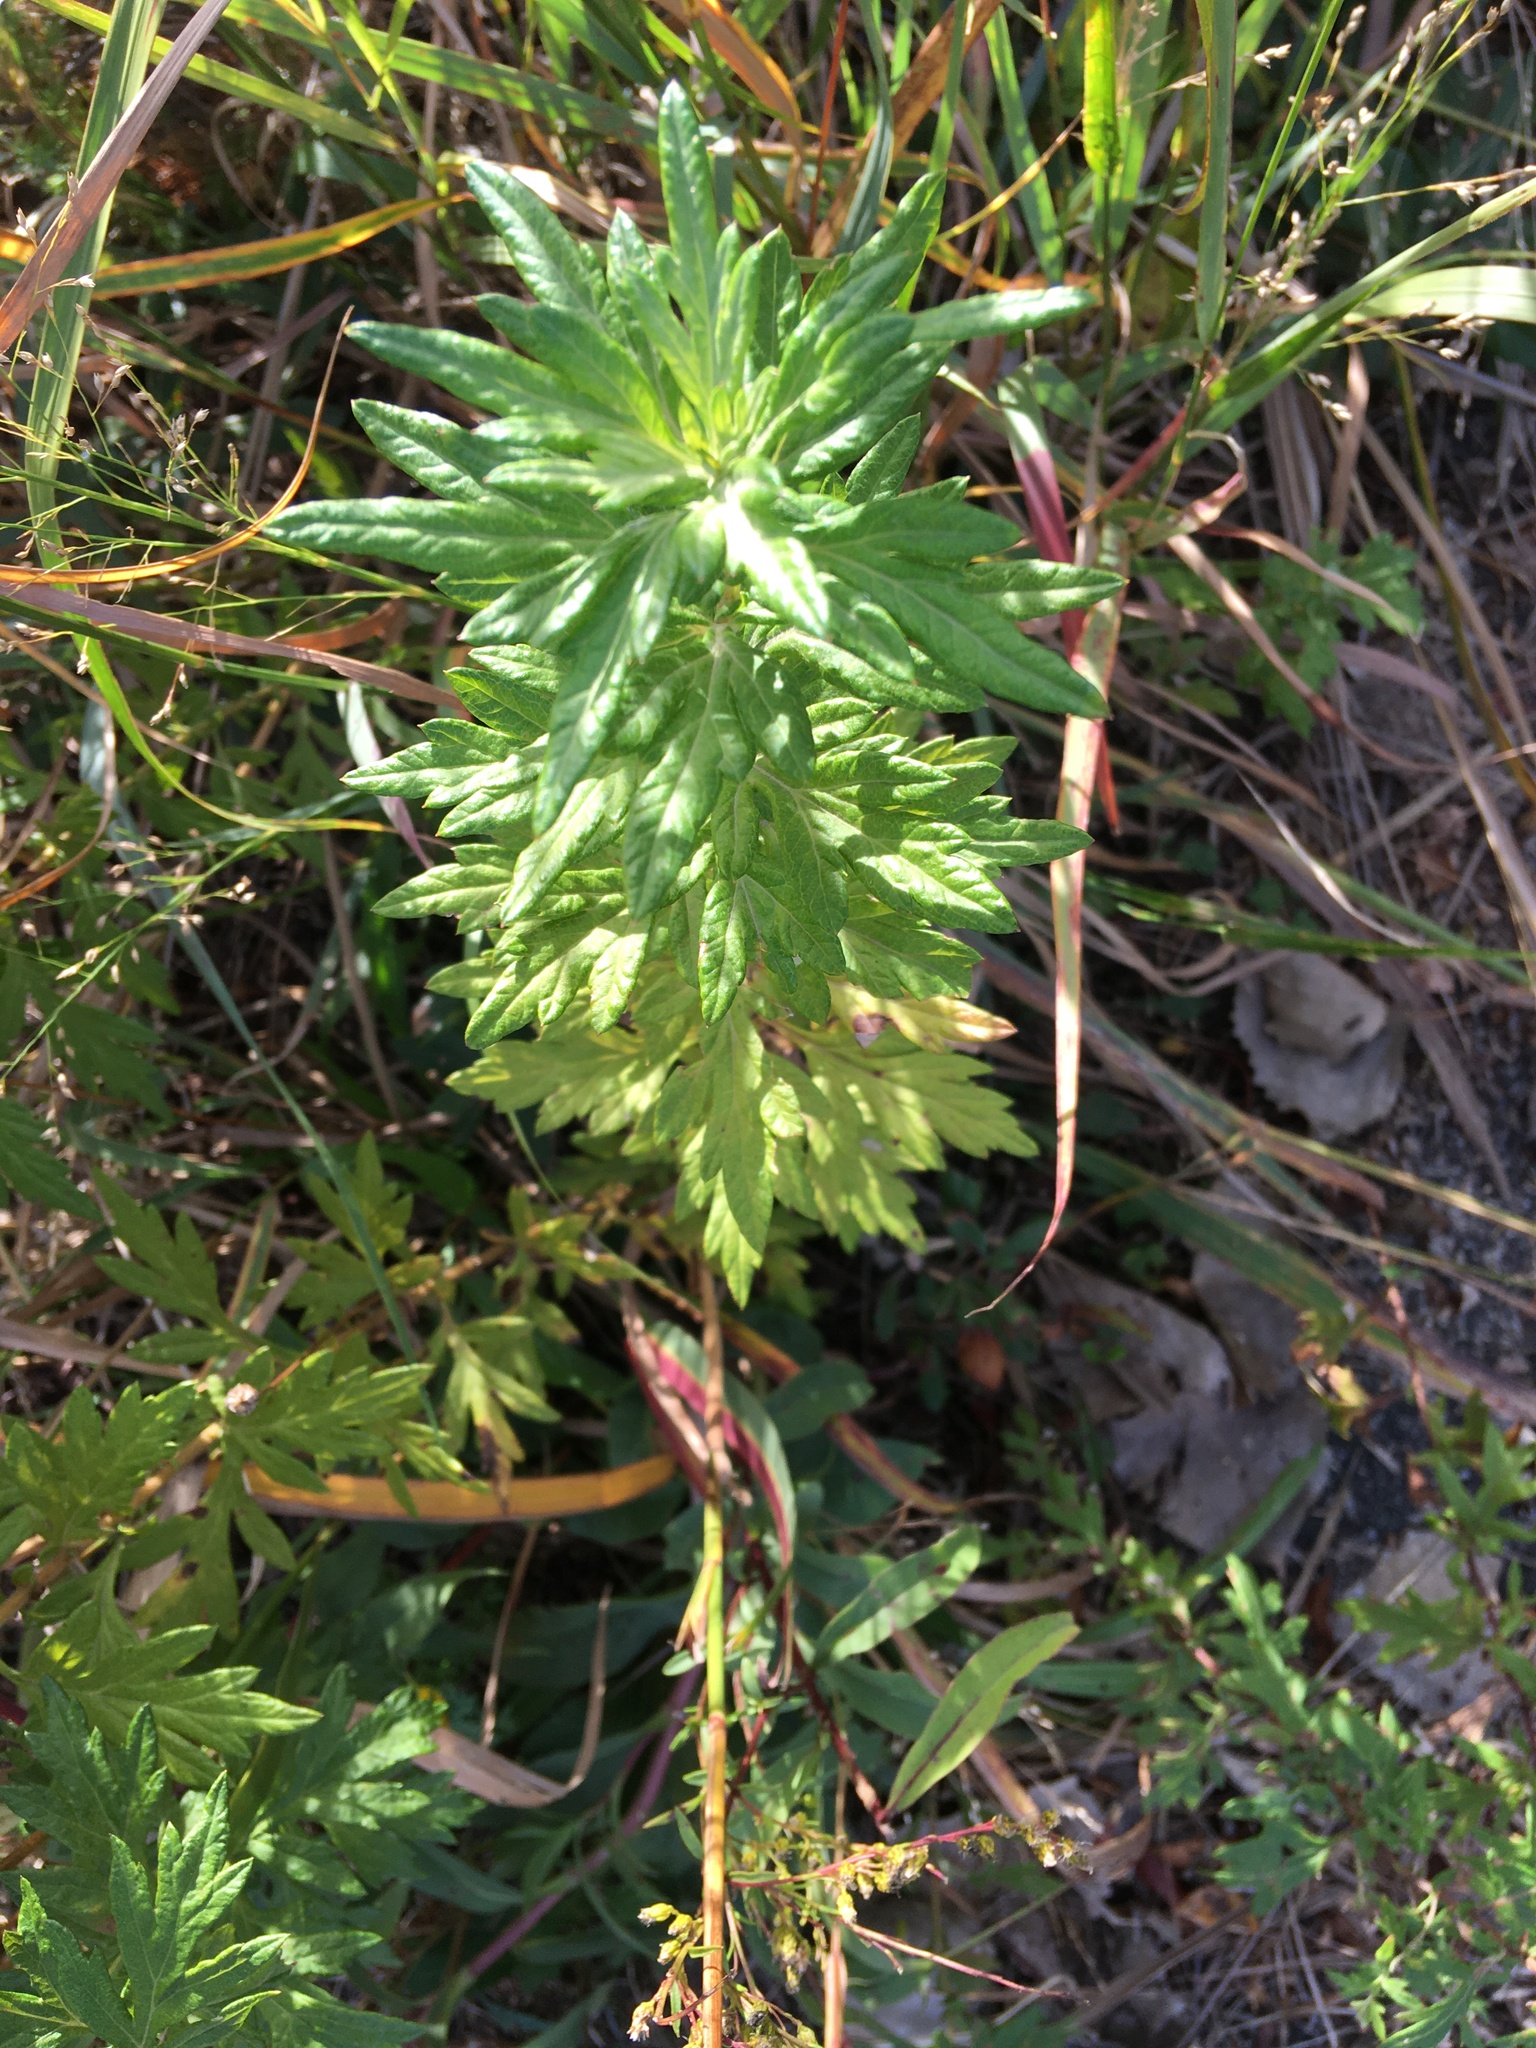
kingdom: Plantae
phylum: Tracheophyta
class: Magnoliopsida
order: Asterales
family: Asteraceae
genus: Artemisia
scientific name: Artemisia vulgaris
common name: Mugwort
